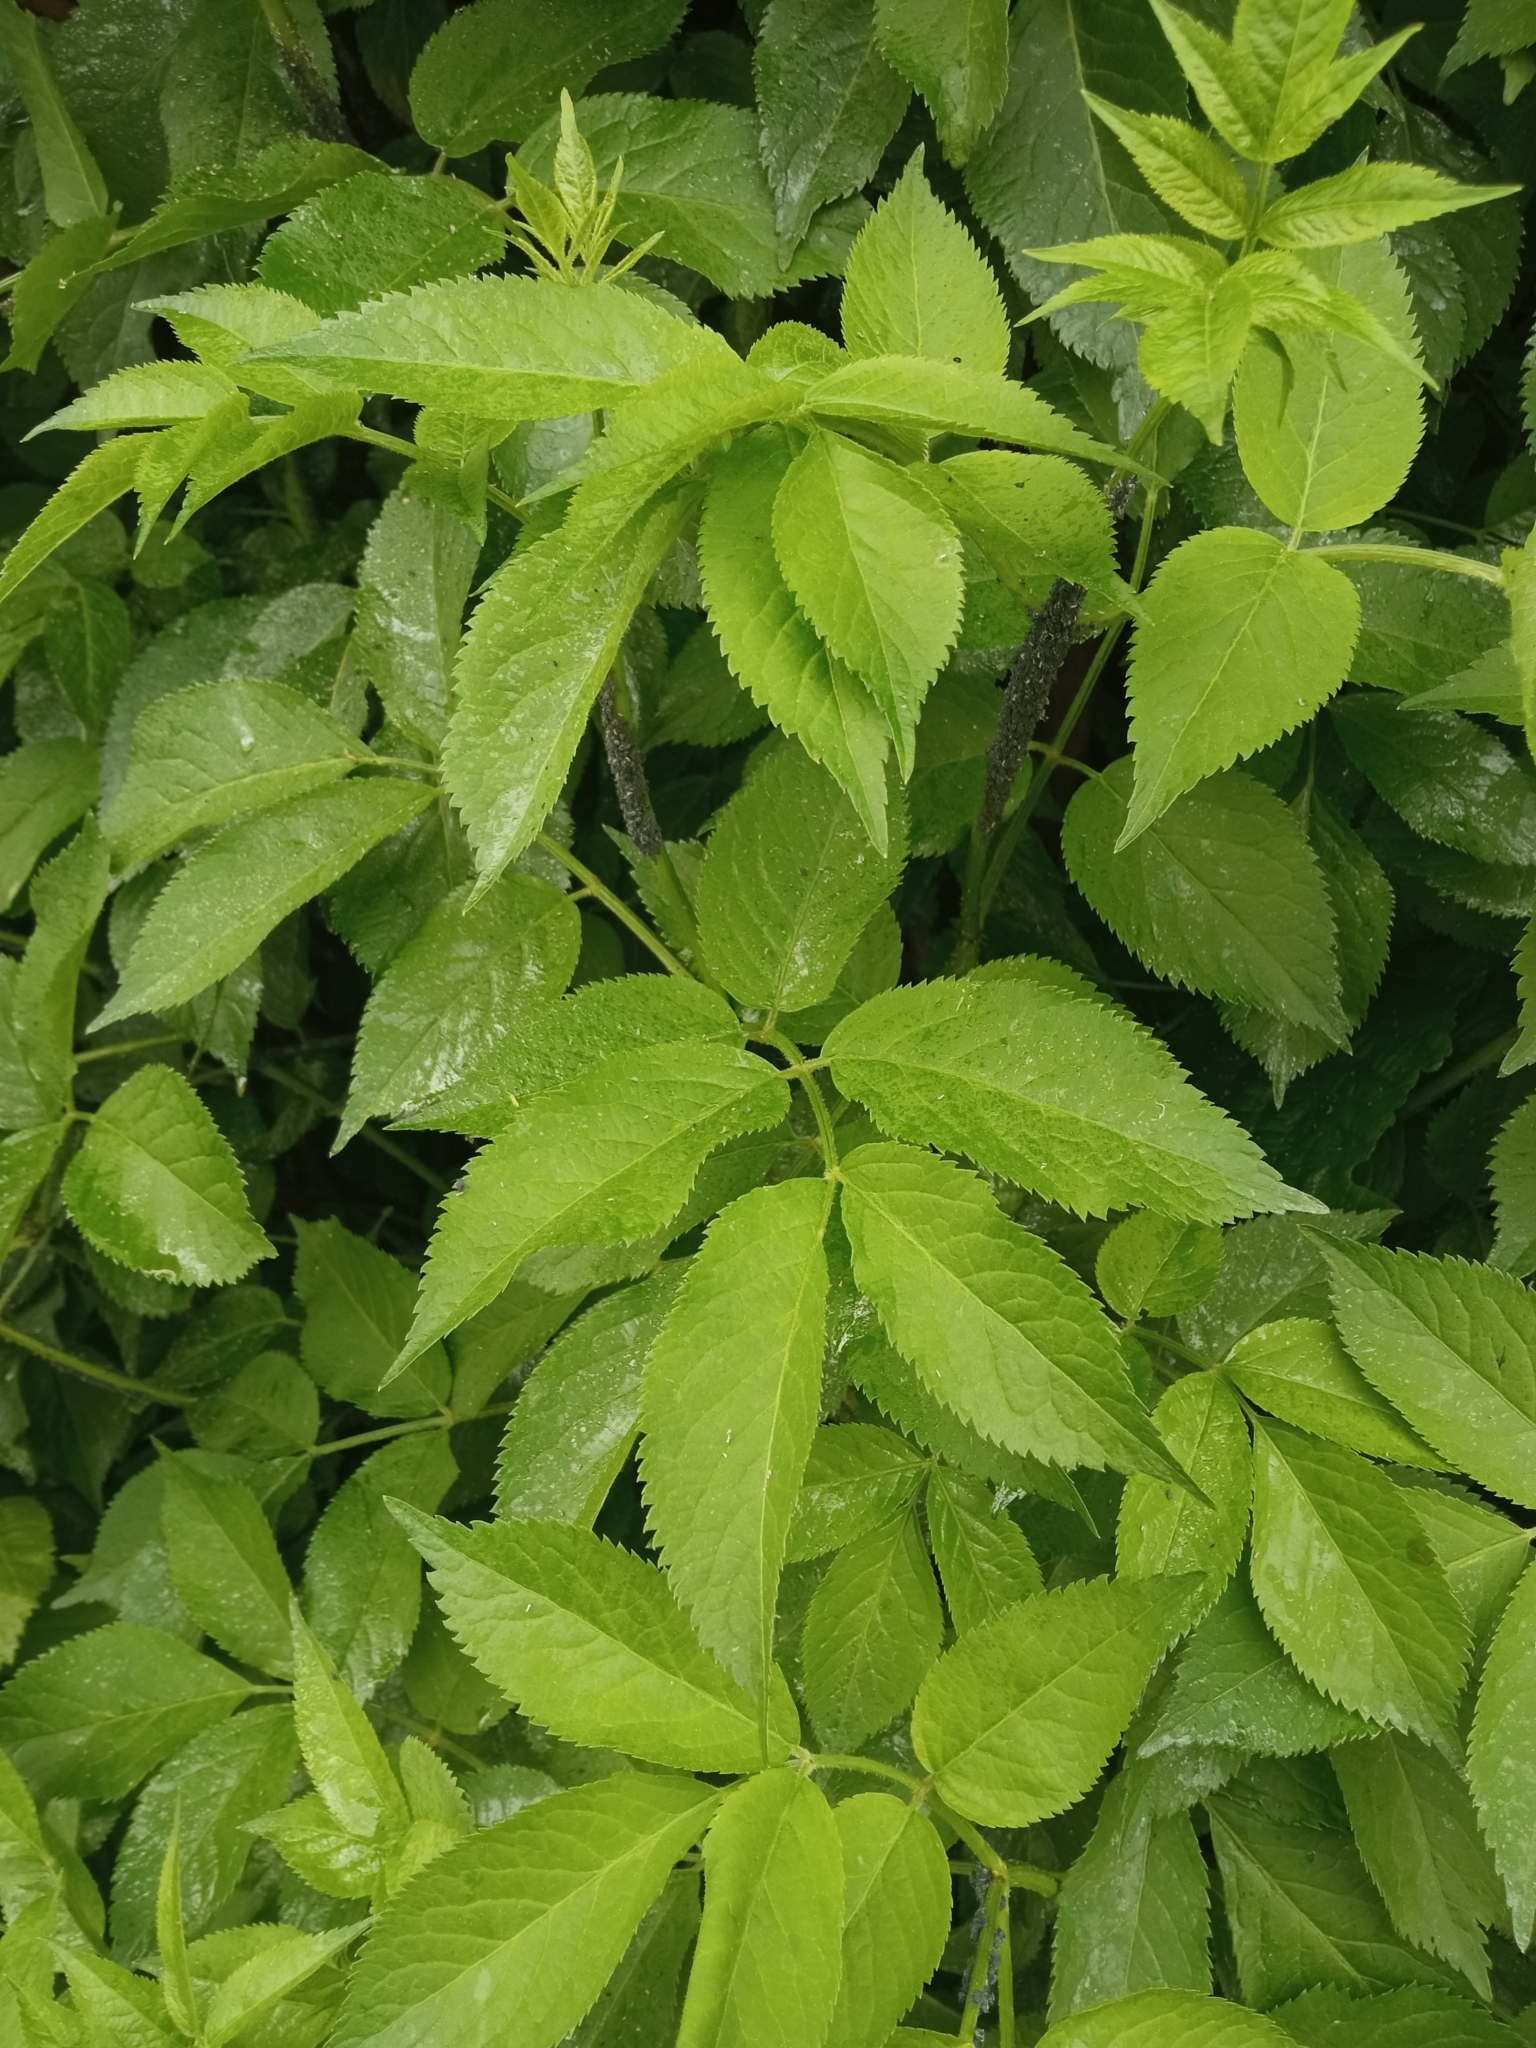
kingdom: Plantae
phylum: Tracheophyta
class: Magnoliopsida
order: Dipsacales
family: Viburnaceae
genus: Sambucus
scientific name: Sambucus nigra
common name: Elder
